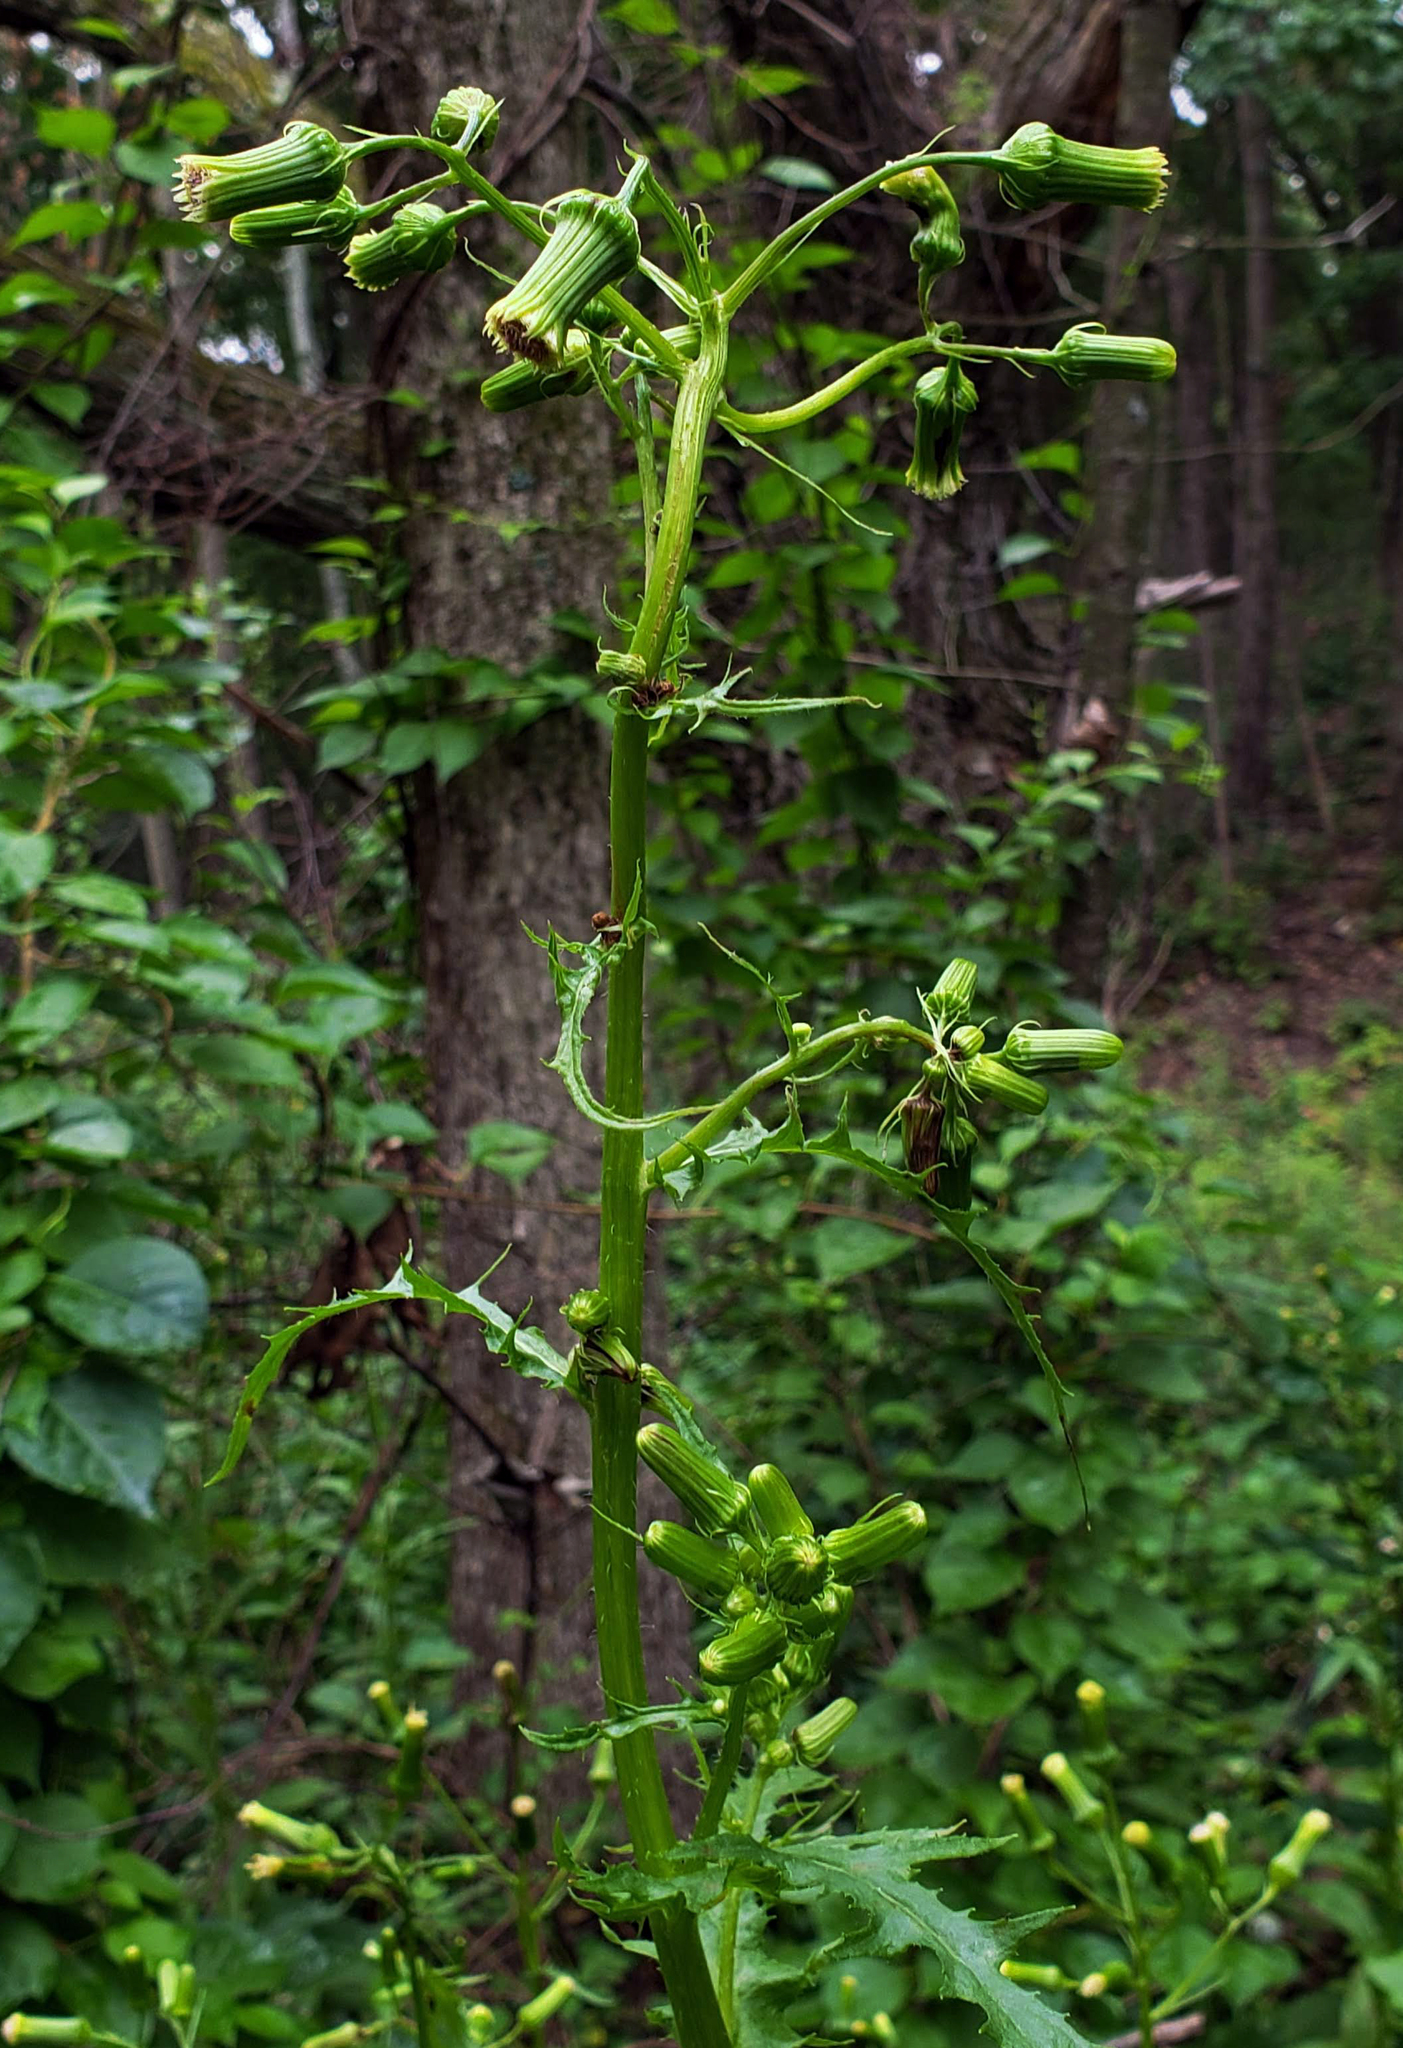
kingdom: Plantae
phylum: Tracheophyta
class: Magnoliopsida
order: Asterales
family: Asteraceae
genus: Erechtites
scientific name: Erechtites hieraciifolius
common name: American burnweed
